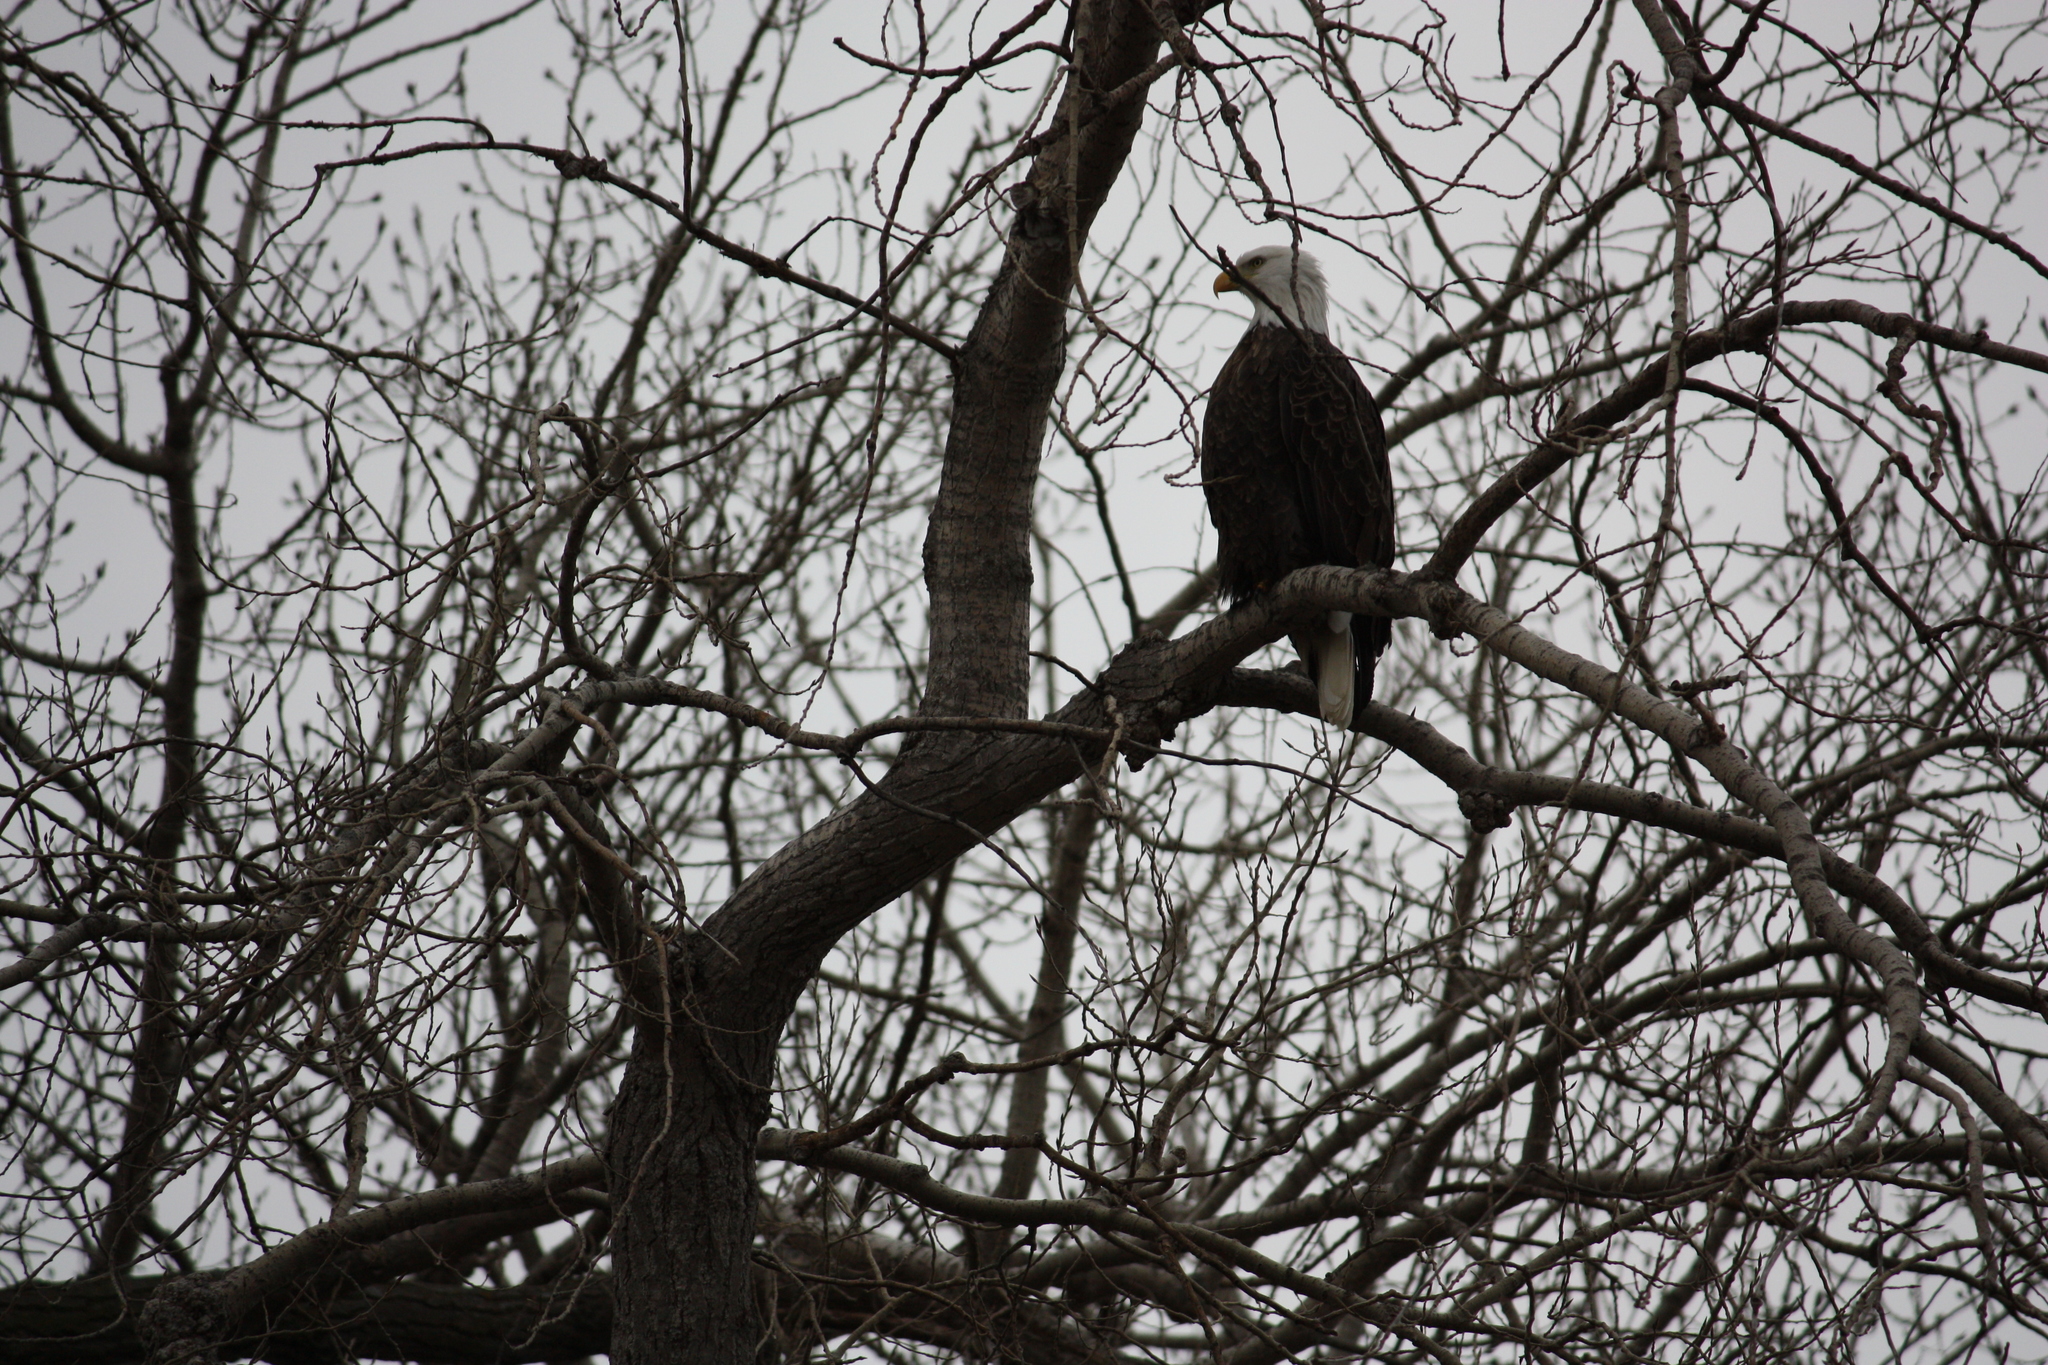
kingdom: Animalia
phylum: Chordata
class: Aves
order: Accipitriformes
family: Accipitridae
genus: Haliaeetus
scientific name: Haliaeetus leucocephalus
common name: Bald eagle
